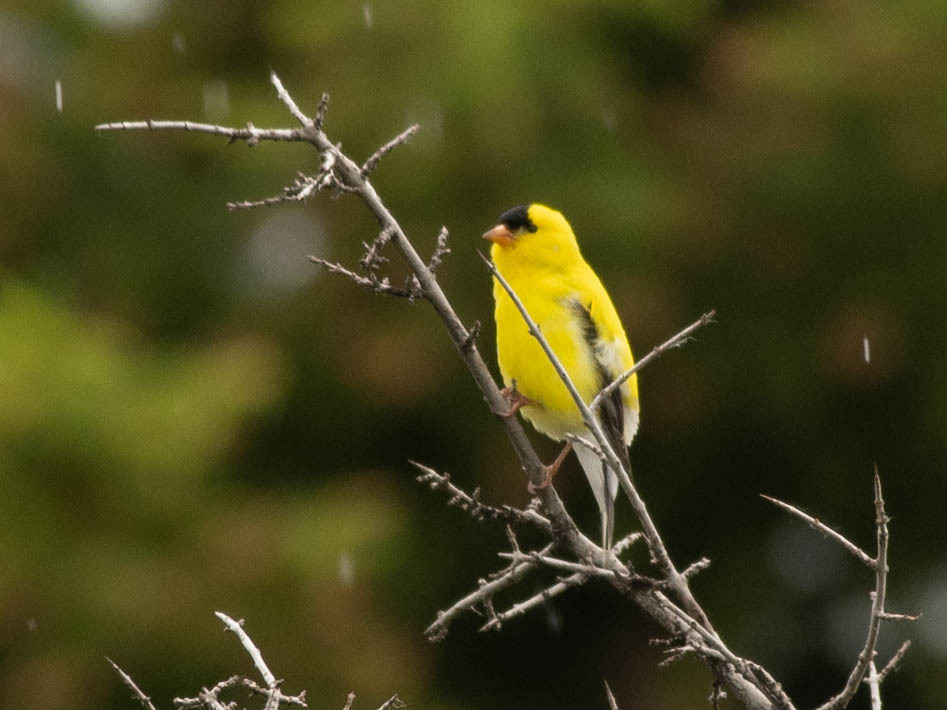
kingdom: Animalia
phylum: Chordata
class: Aves
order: Passeriformes
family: Fringillidae
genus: Spinus
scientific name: Spinus tristis
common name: American goldfinch
